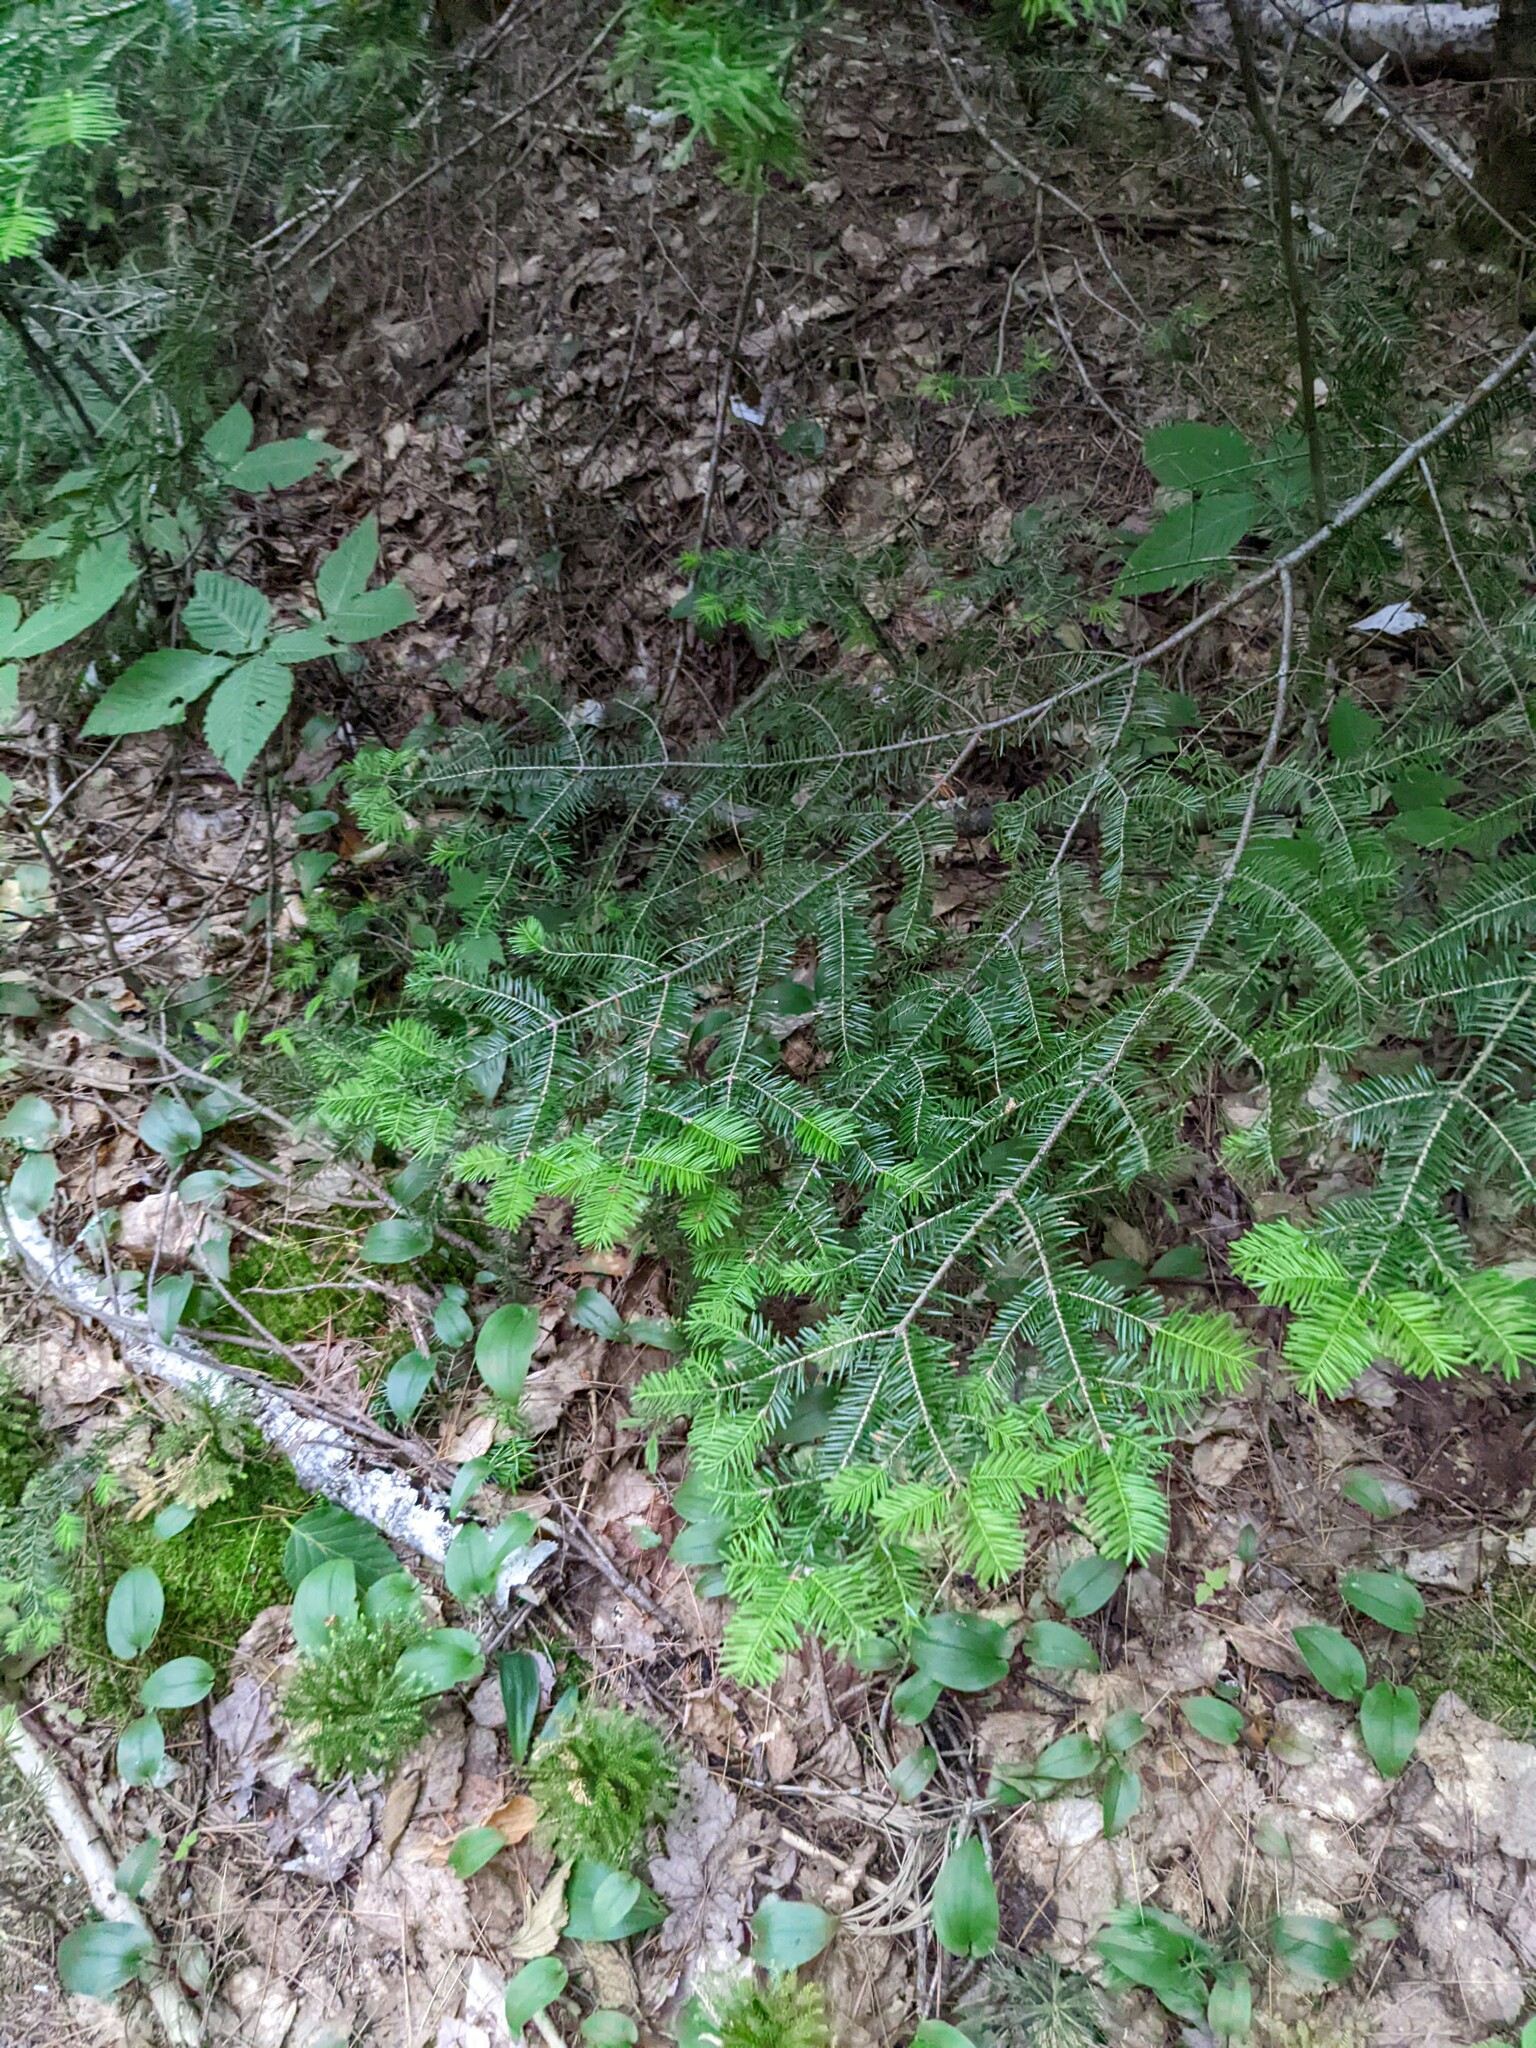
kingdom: Plantae
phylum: Tracheophyta
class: Pinopsida
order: Pinales
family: Pinaceae
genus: Abies
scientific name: Abies balsamea
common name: Balsam fir
